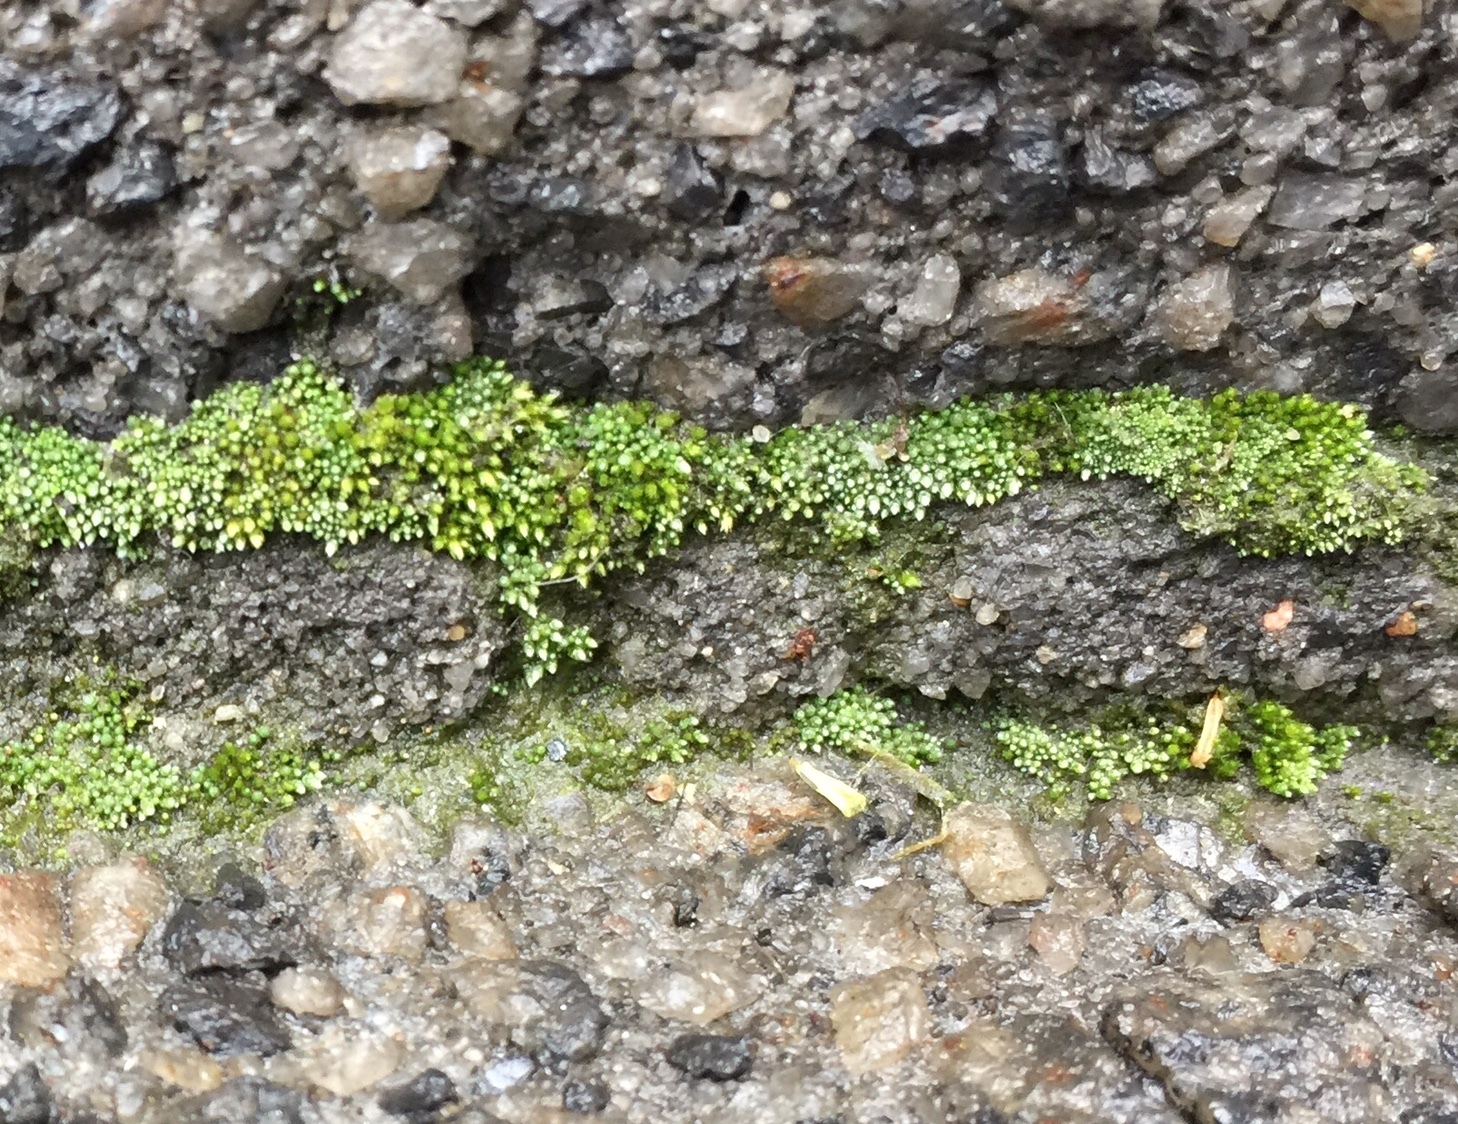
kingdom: Plantae
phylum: Bryophyta
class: Bryopsida
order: Bryales
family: Bryaceae
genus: Bryum
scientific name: Bryum argenteum
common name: Silver-moss
